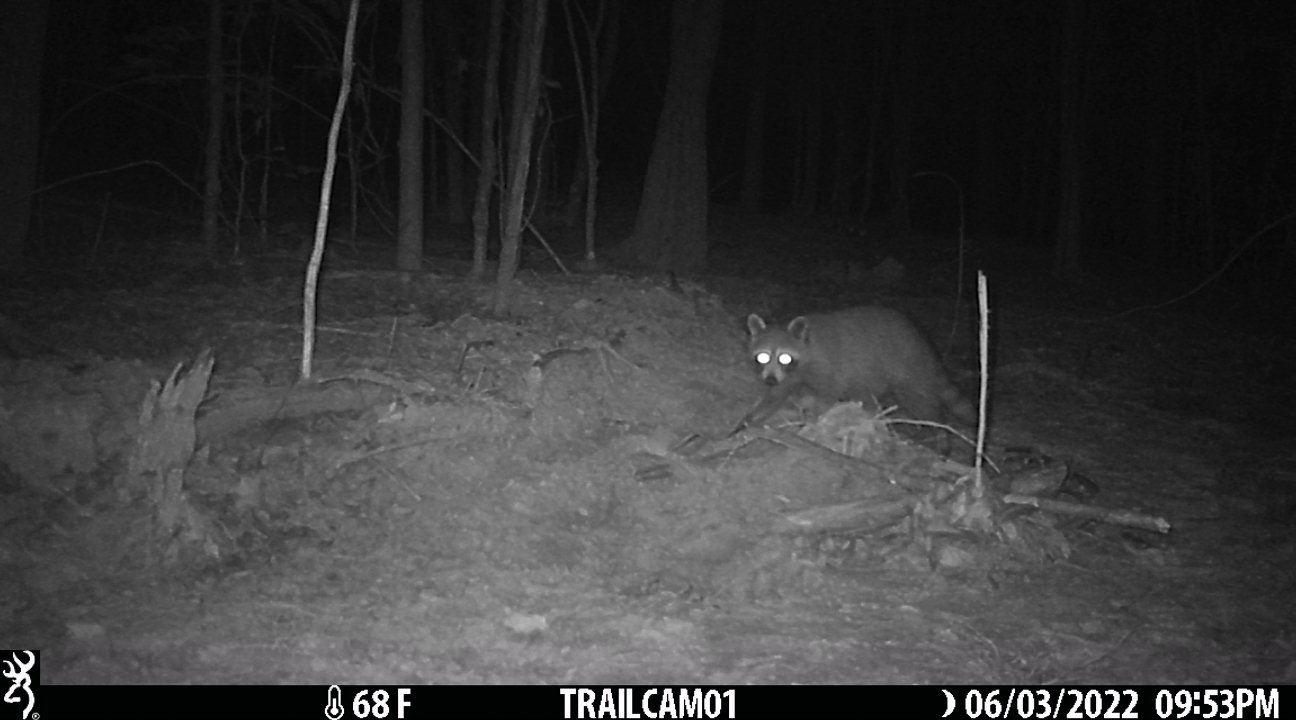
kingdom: Animalia
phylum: Chordata
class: Mammalia
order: Carnivora
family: Procyonidae
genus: Procyon
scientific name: Procyon lotor
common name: Raccoon
